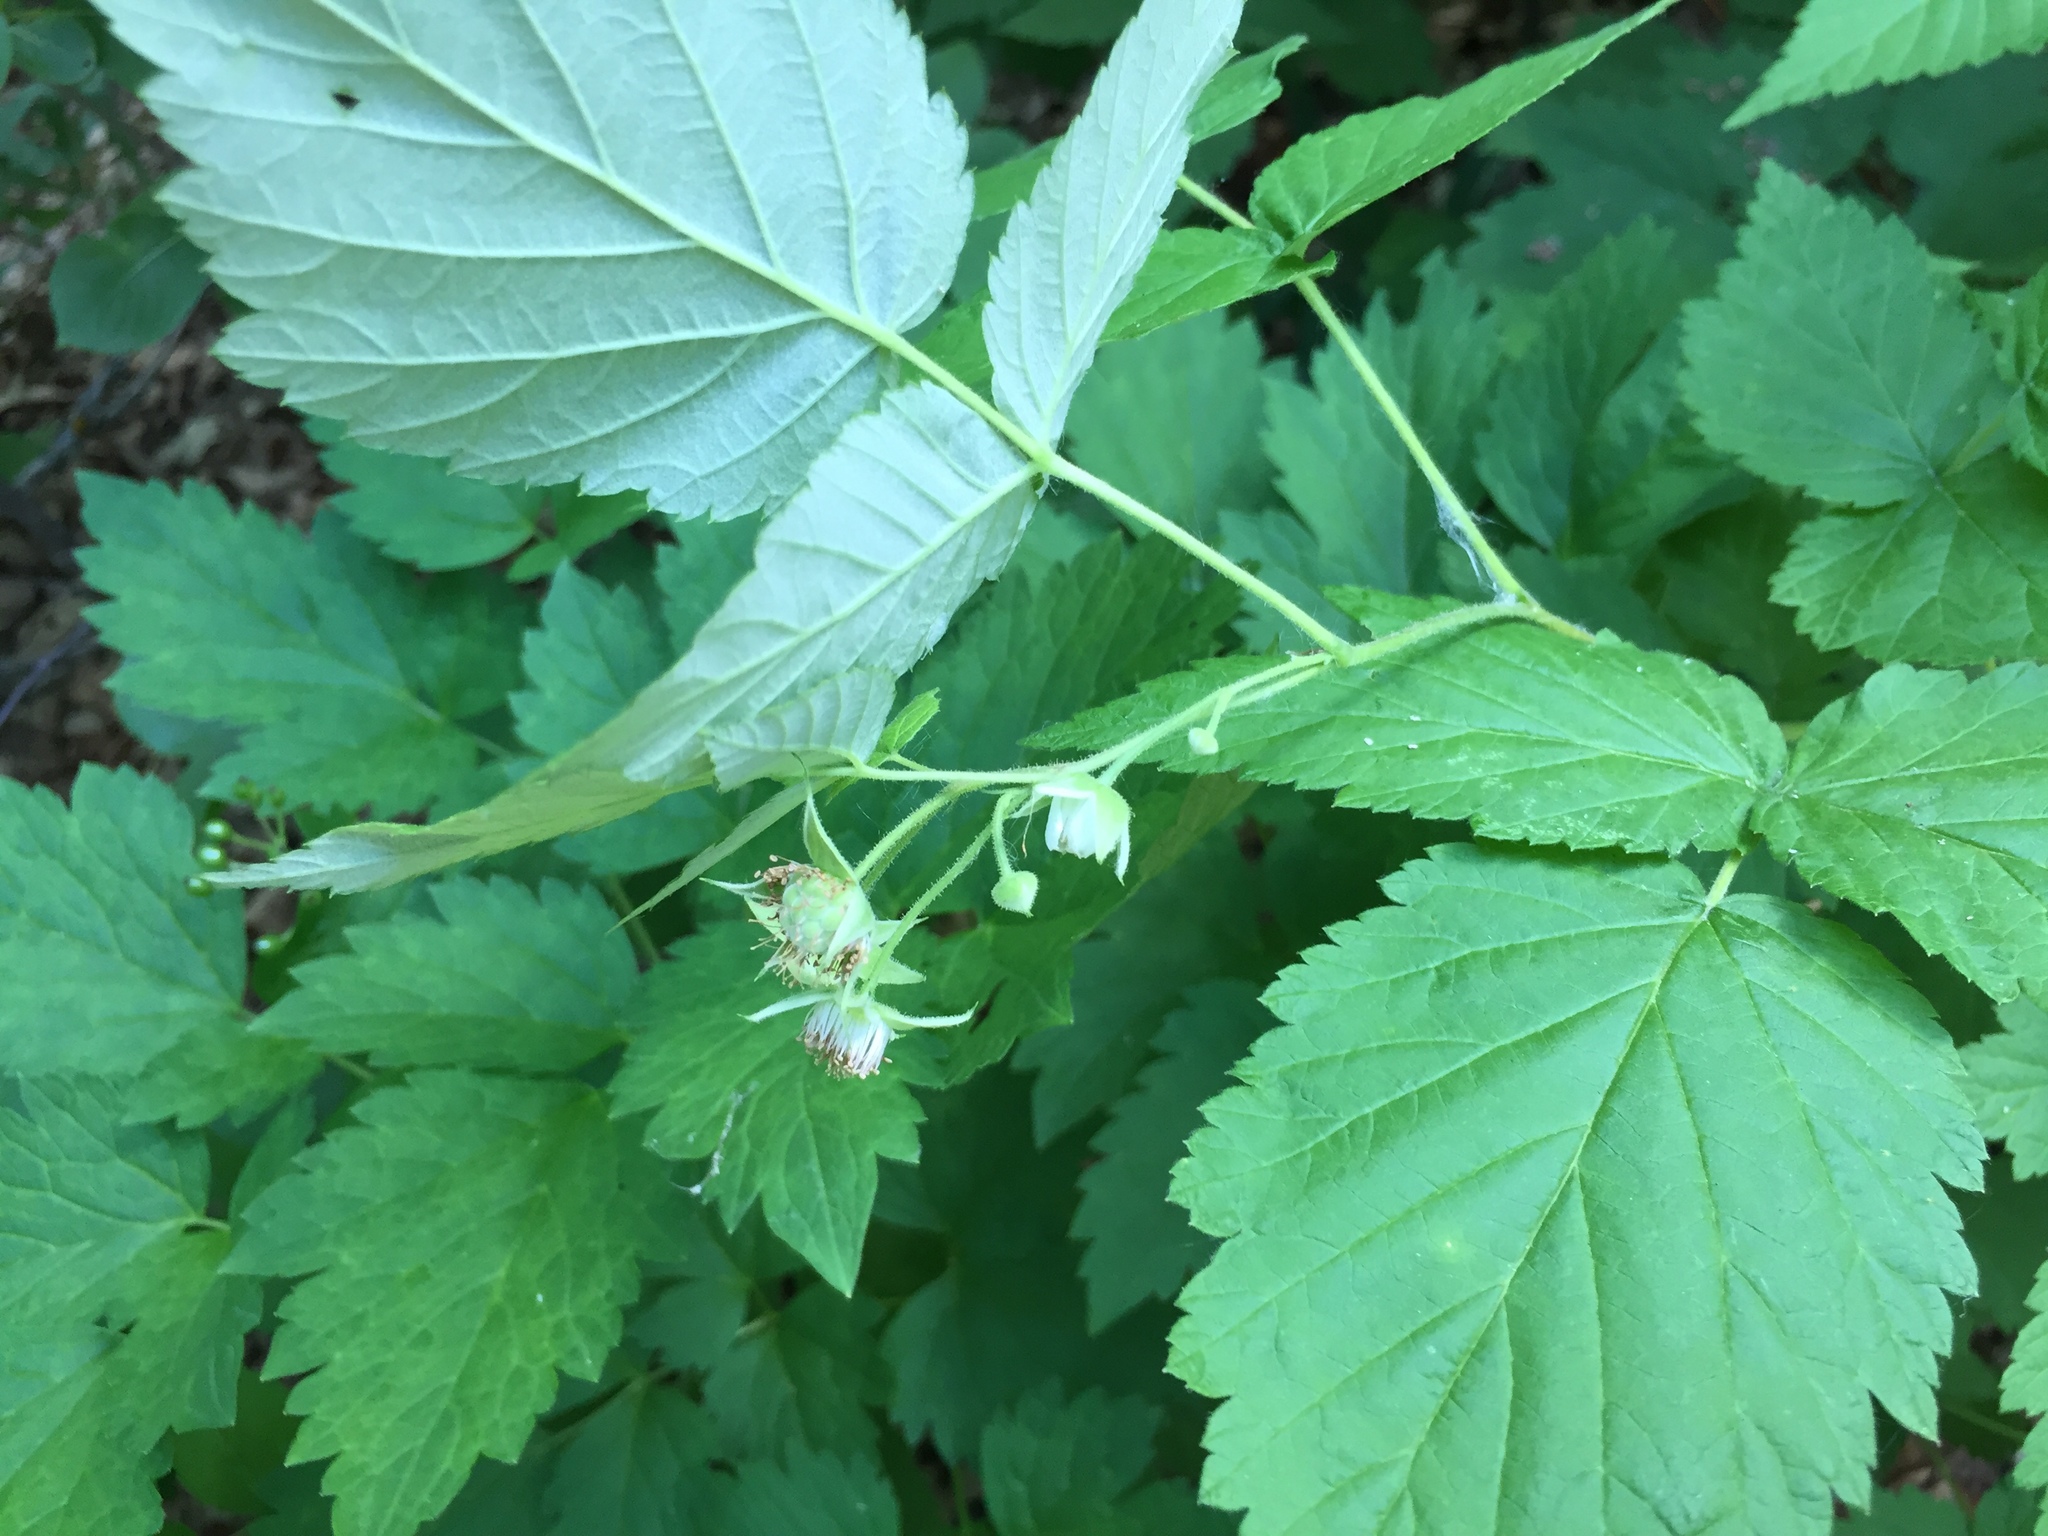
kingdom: Plantae
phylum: Tracheophyta
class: Magnoliopsida
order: Rosales
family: Rosaceae
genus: Rubus
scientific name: Rubus idaeus
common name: Raspberry
